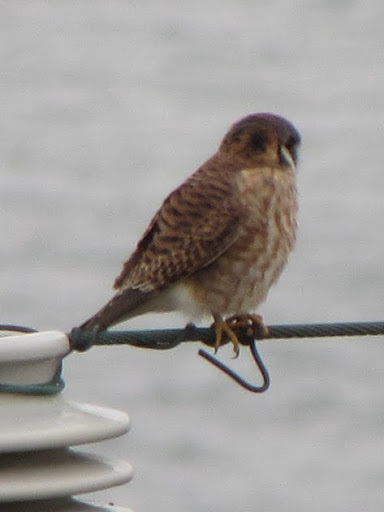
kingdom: Animalia
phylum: Chordata
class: Aves
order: Falconiformes
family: Falconidae
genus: Falco
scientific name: Falco sparverius
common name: American kestrel
